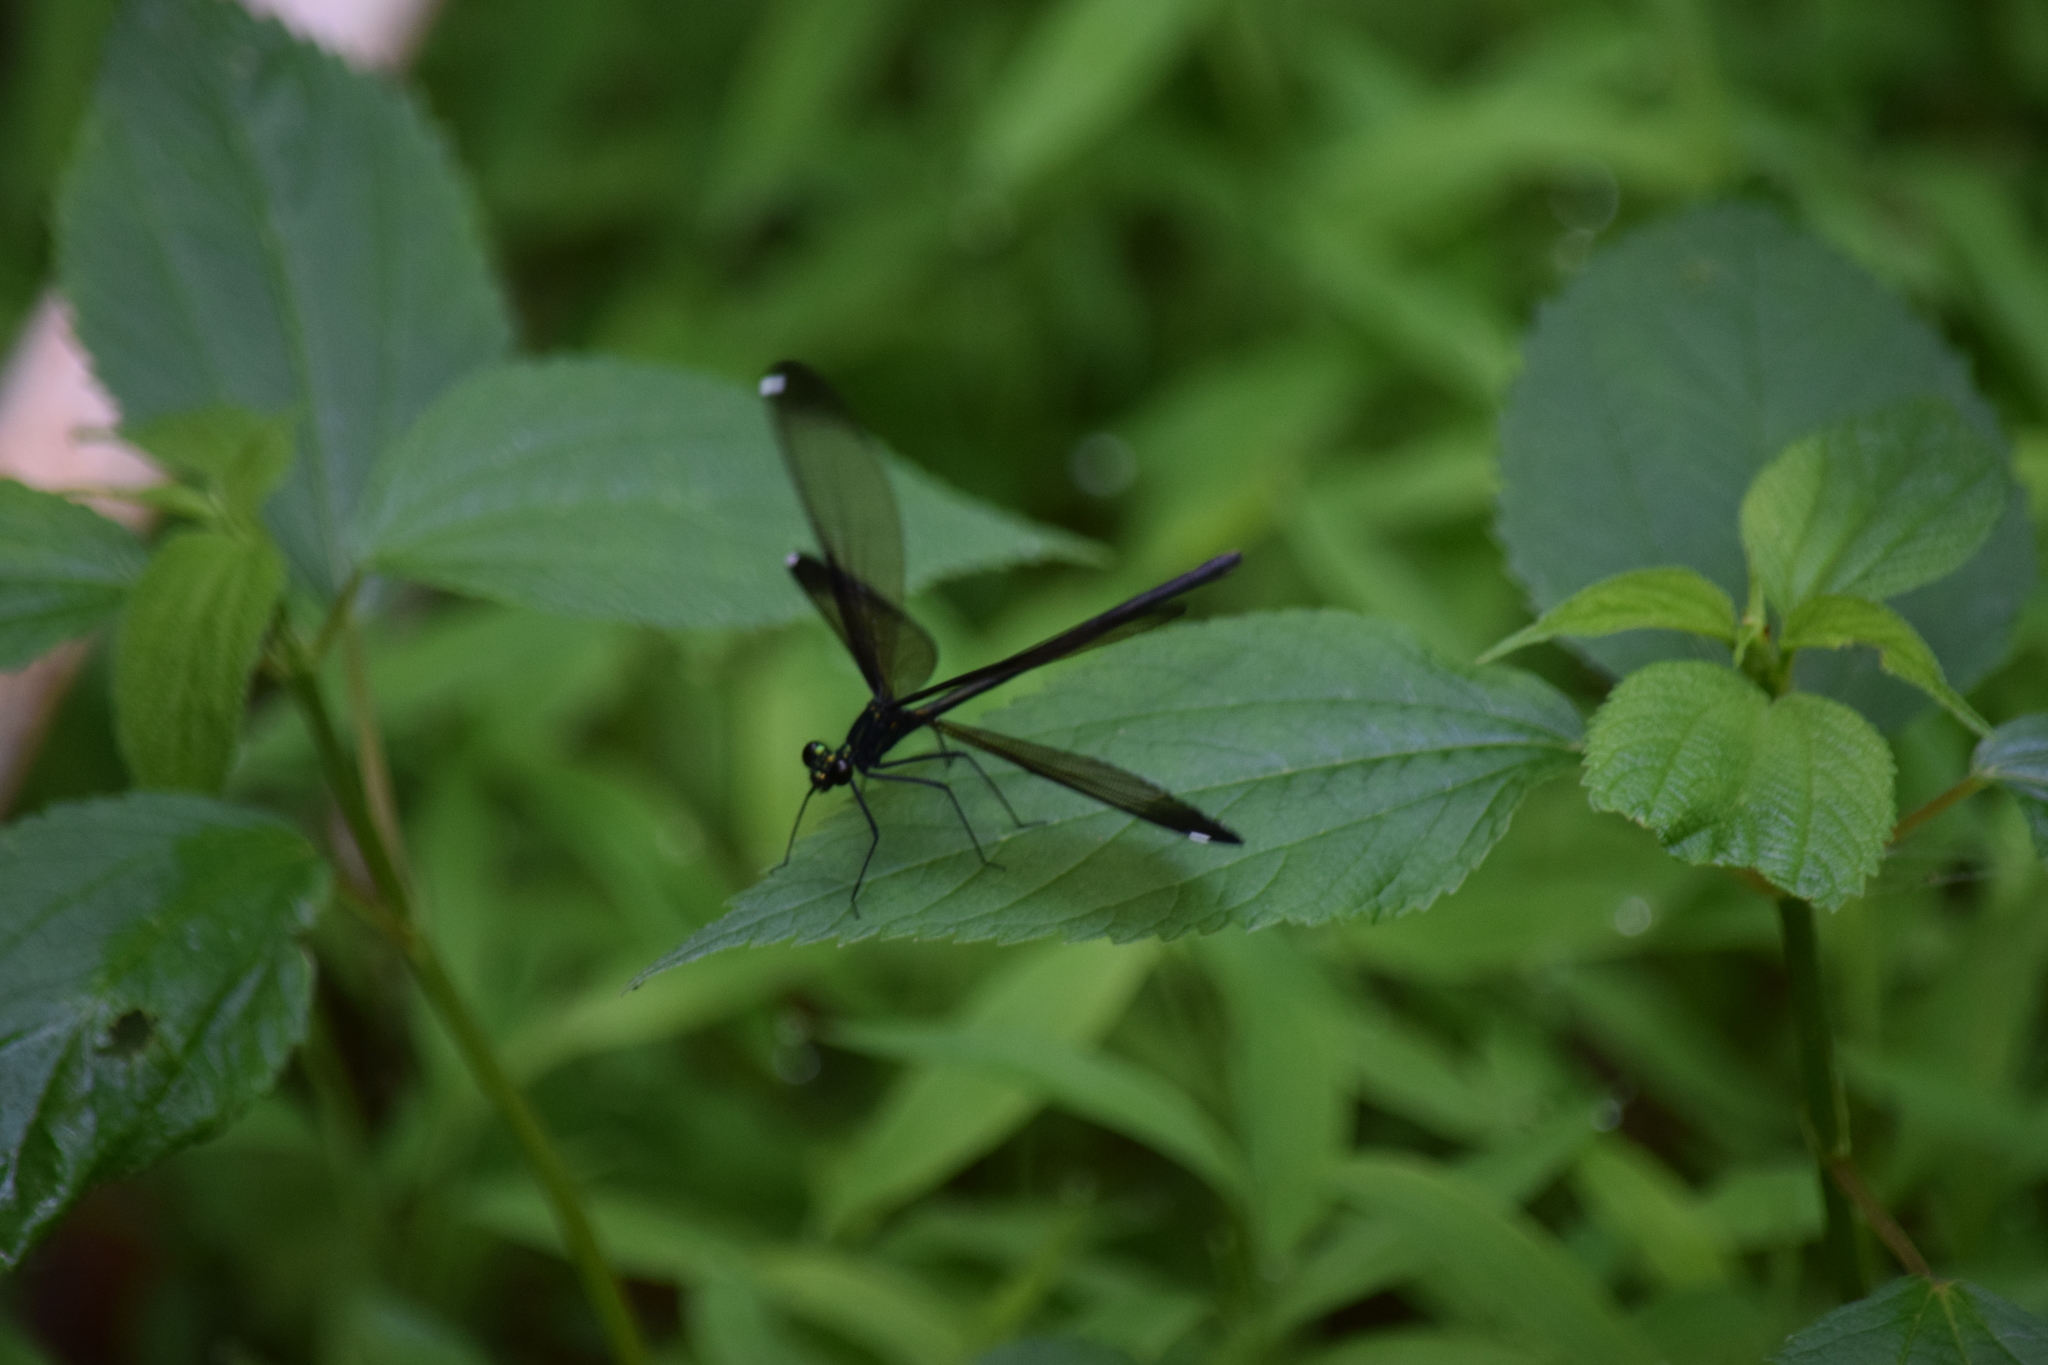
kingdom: Animalia
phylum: Arthropoda
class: Insecta
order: Odonata
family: Calopterygidae
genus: Calopteryx
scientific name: Calopteryx maculata
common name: Ebony jewelwing
